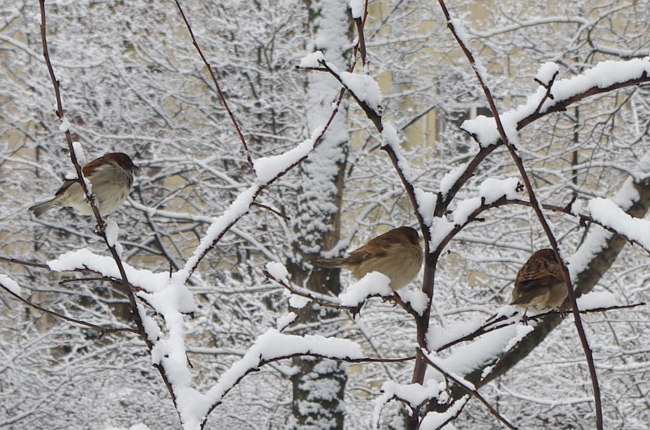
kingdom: Animalia
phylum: Chordata
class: Aves
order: Passeriformes
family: Passeridae
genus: Passer
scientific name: Passer domesticus
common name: House sparrow
